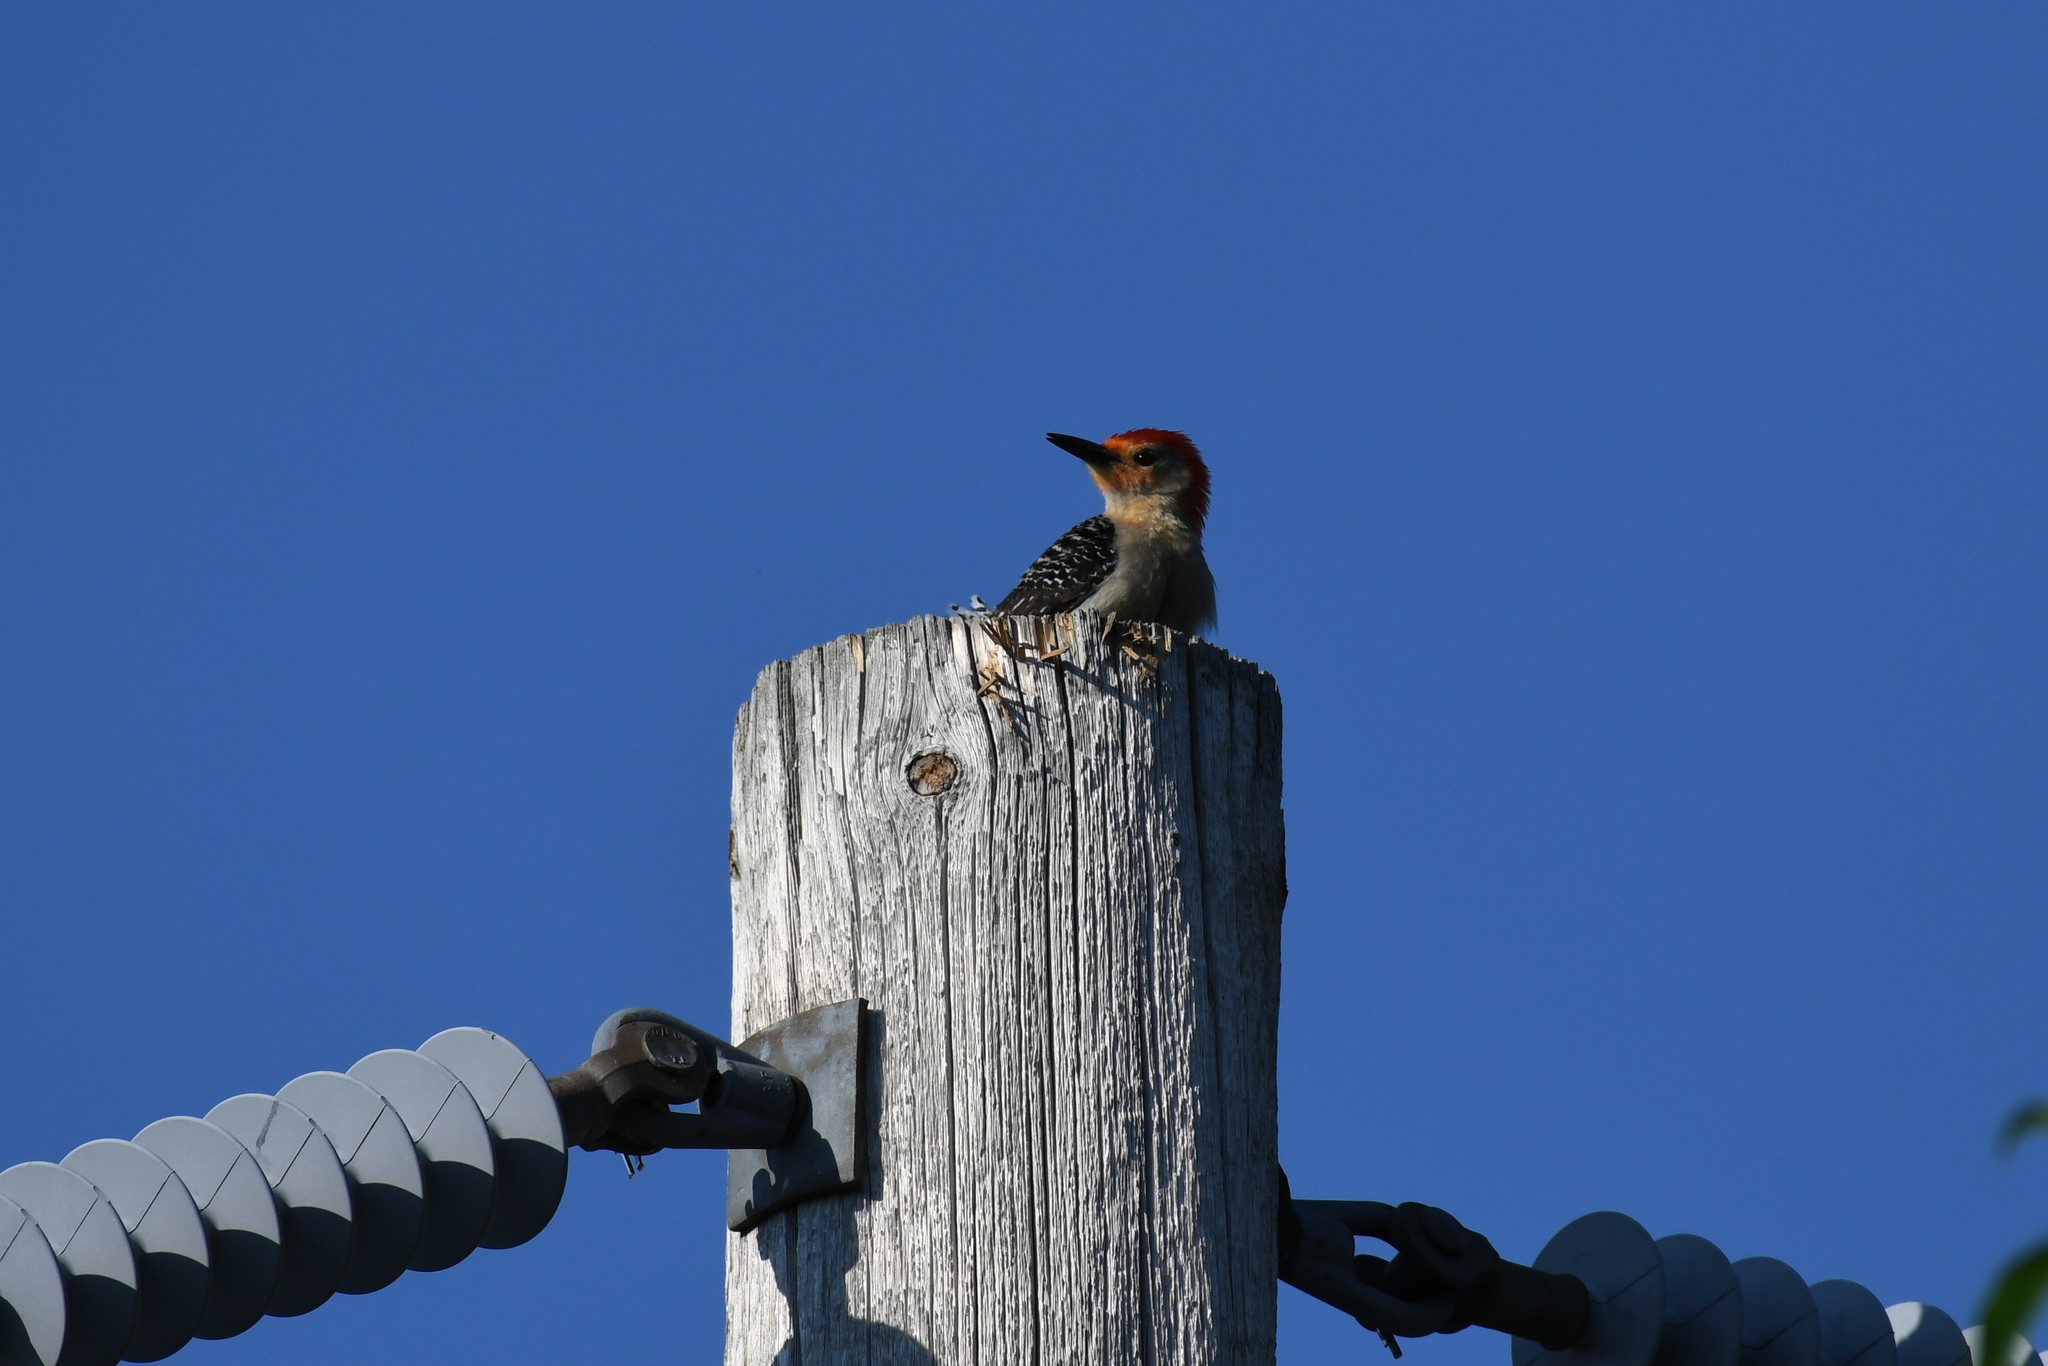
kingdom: Animalia
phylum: Chordata
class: Aves
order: Piciformes
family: Picidae
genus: Melanerpes
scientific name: Melanerpes carolinus
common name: Red-bellied woodpecker
